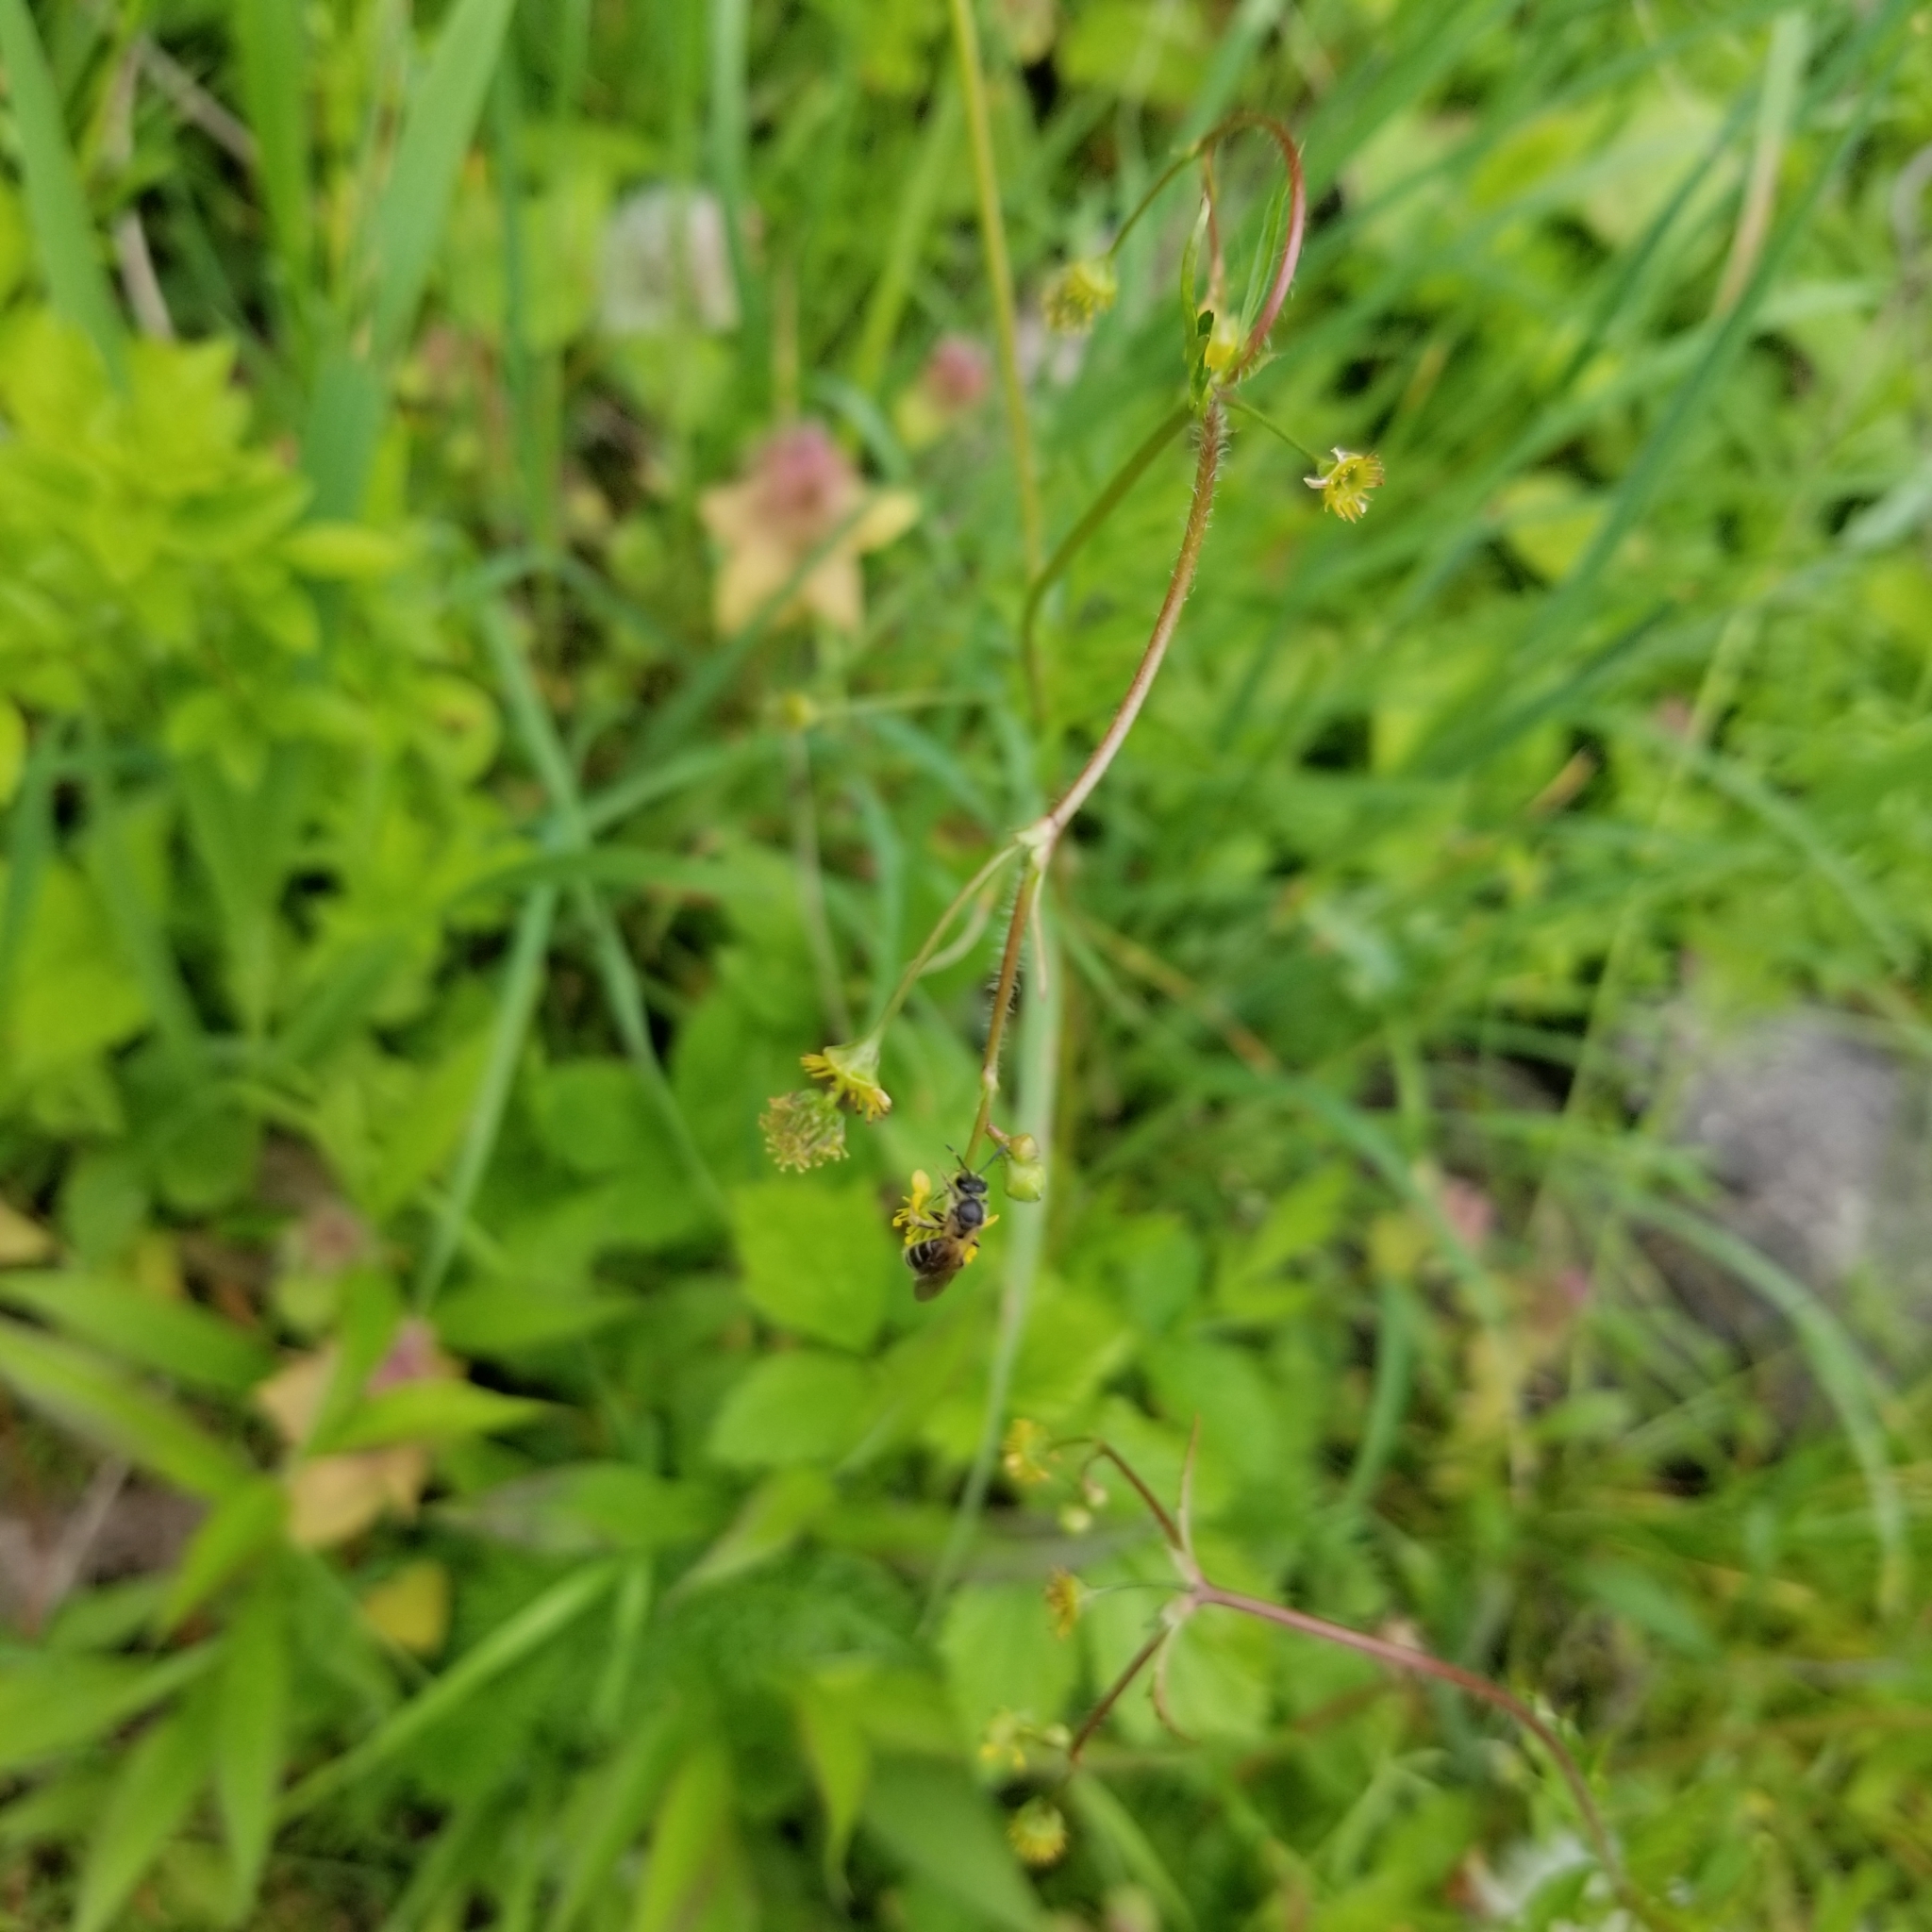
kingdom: Plantae
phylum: Tracheophyta
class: Magnoliopsida
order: Rosales
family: Rosaceae
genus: Geum
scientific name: Geum vernum
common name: Spring avens
